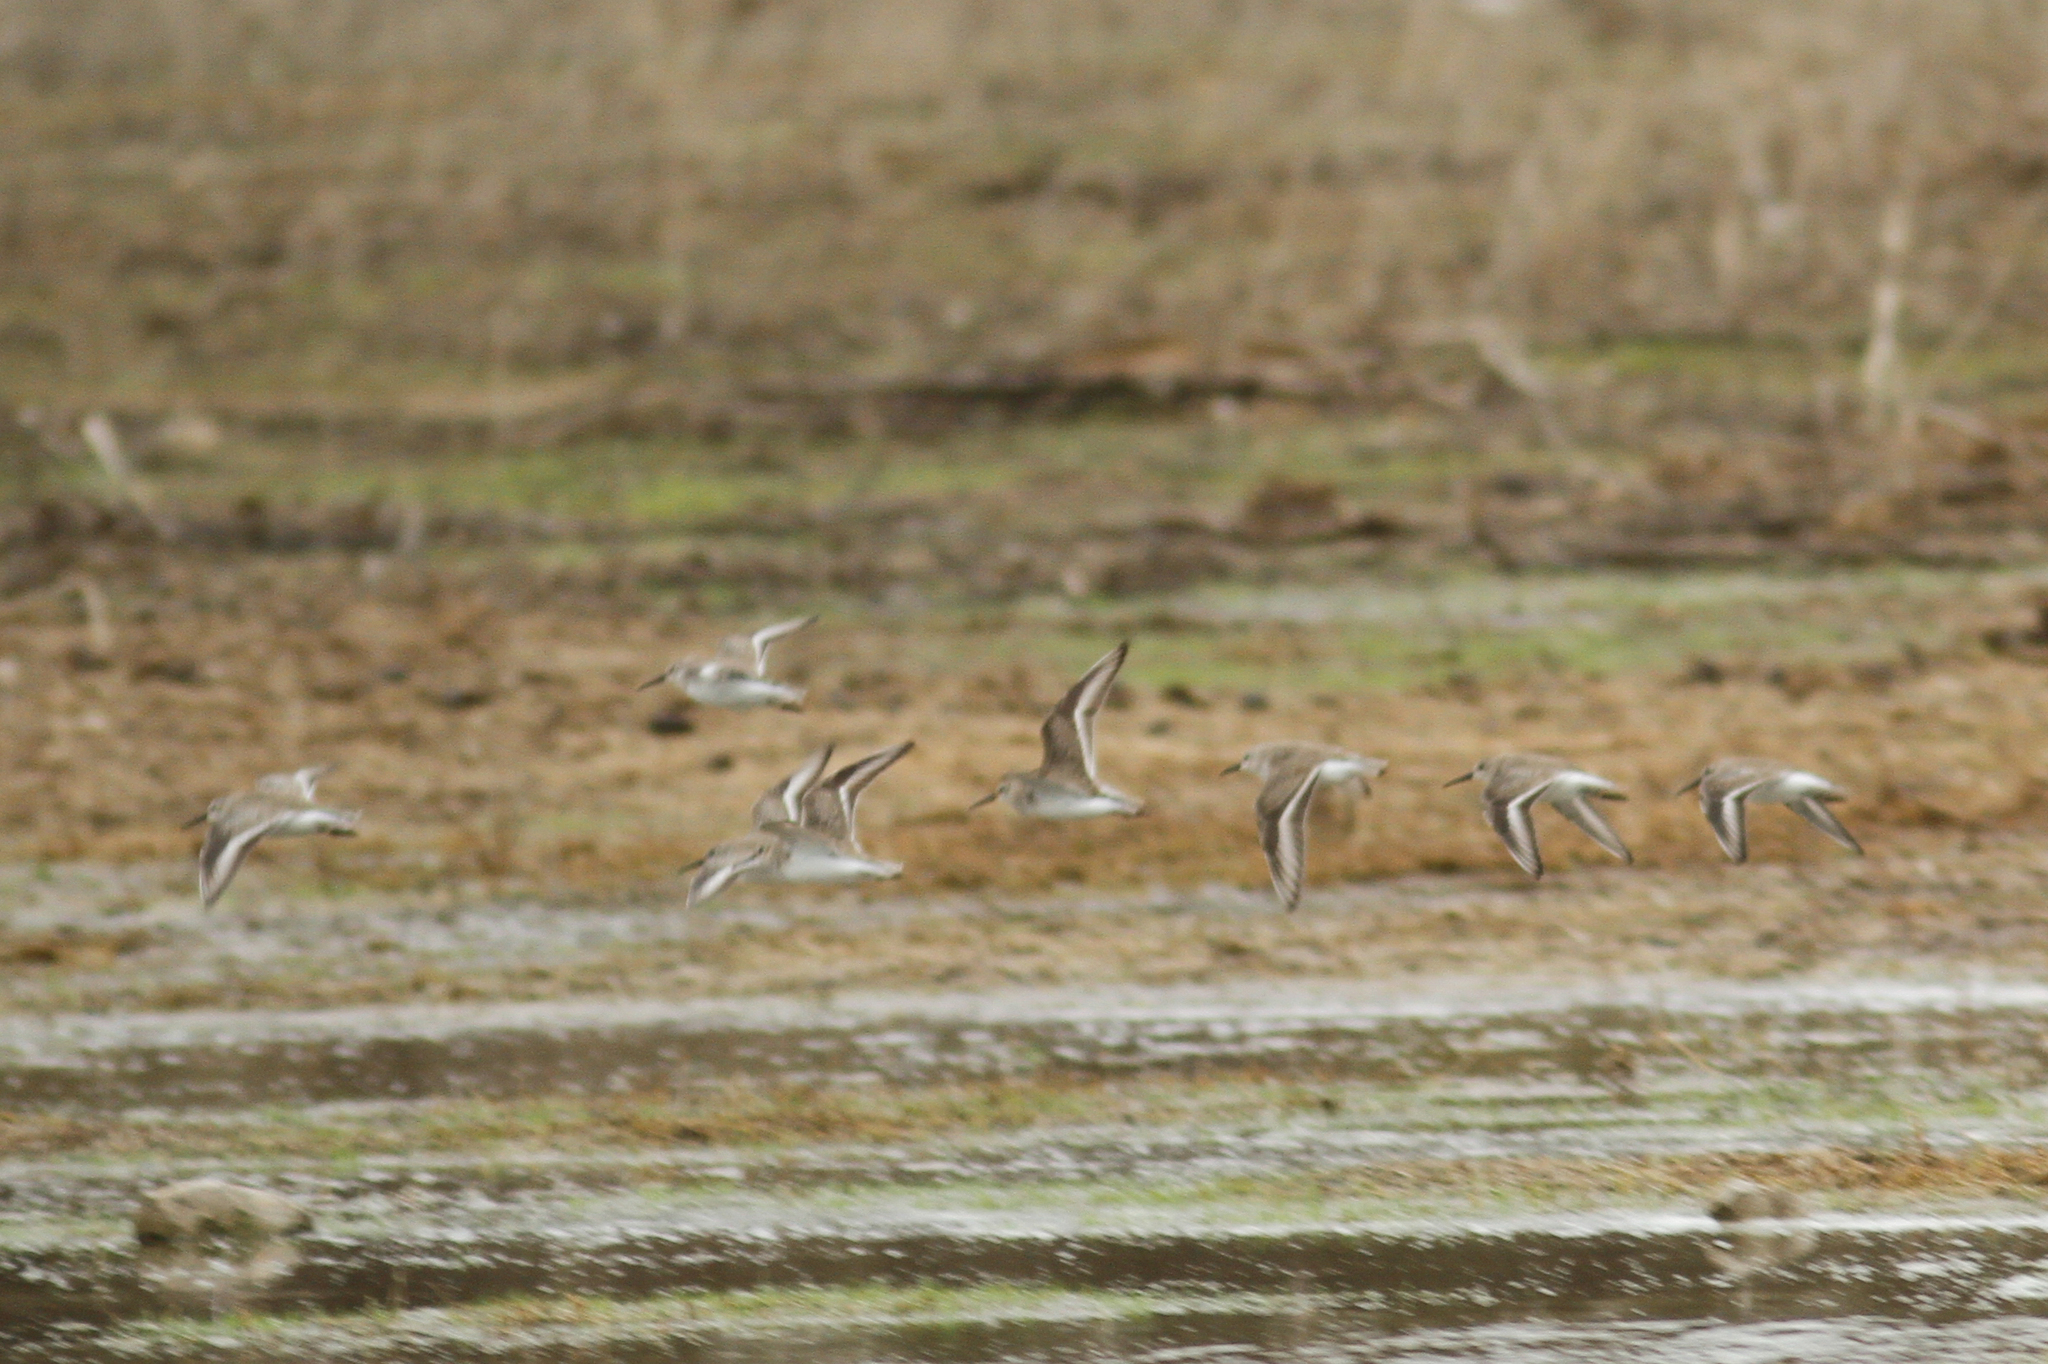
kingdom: Animalia
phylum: Chordata
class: Aves
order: Charadriiformes
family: Scolopacidae
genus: Calidris
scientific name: Calidris alpina
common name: Dunlin
